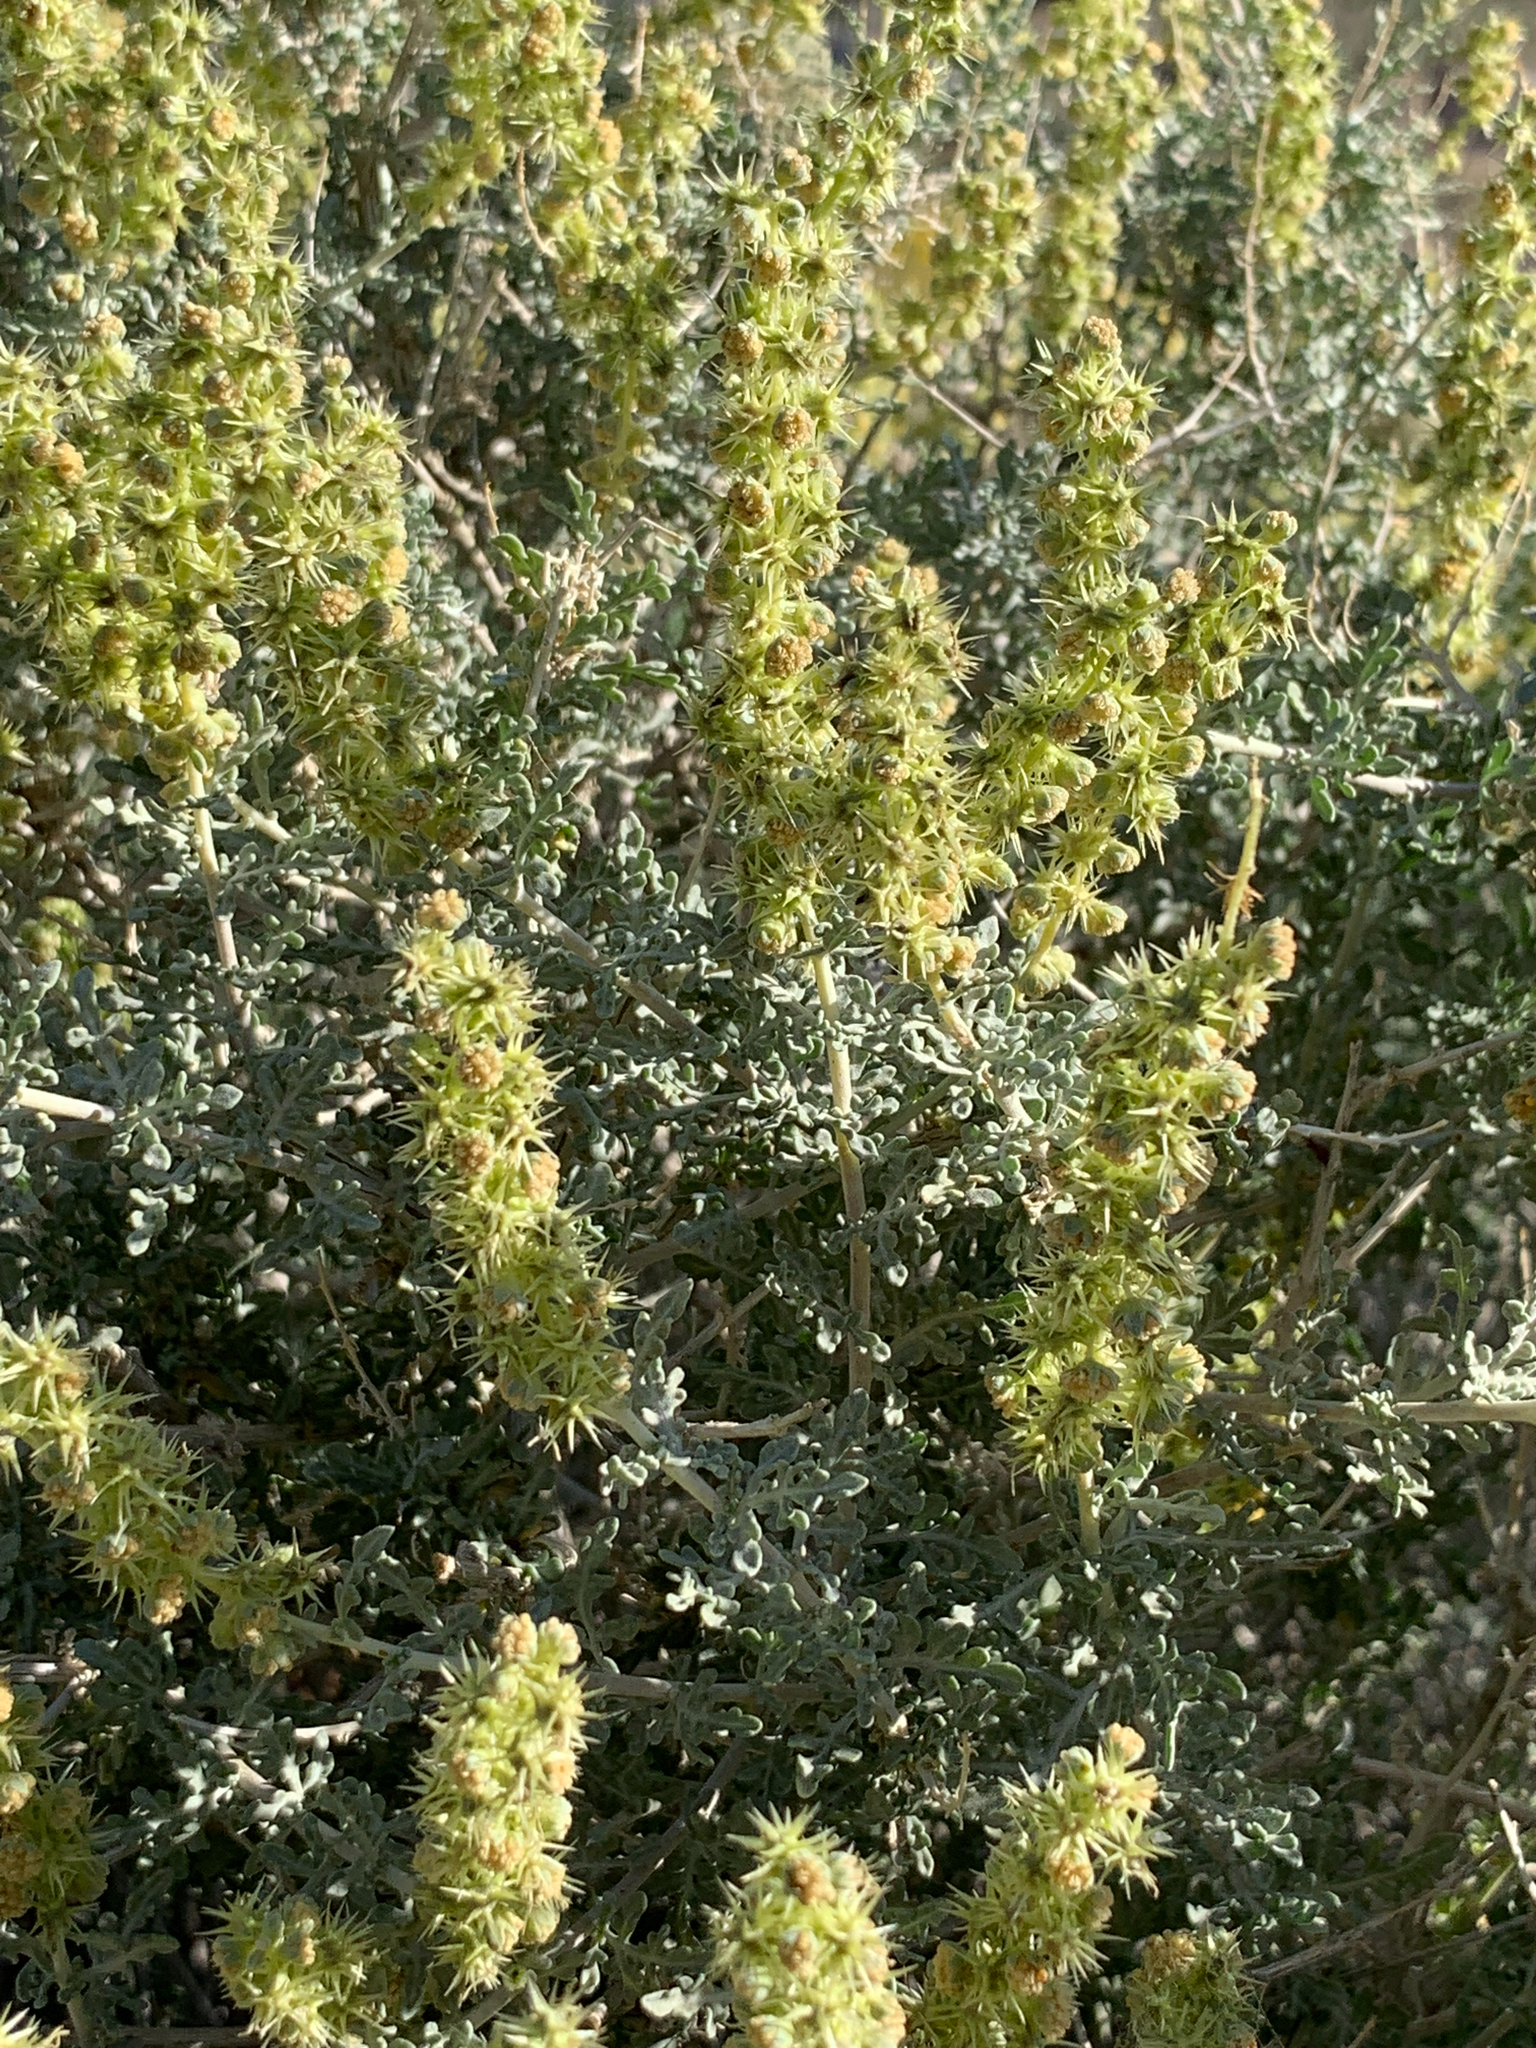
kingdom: Plantae
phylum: Tracheophyta
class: Magnoliopsida
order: Asterales
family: Asteraceae
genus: Ambrosia
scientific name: Ambrosia dumosa
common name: Bur-sage
